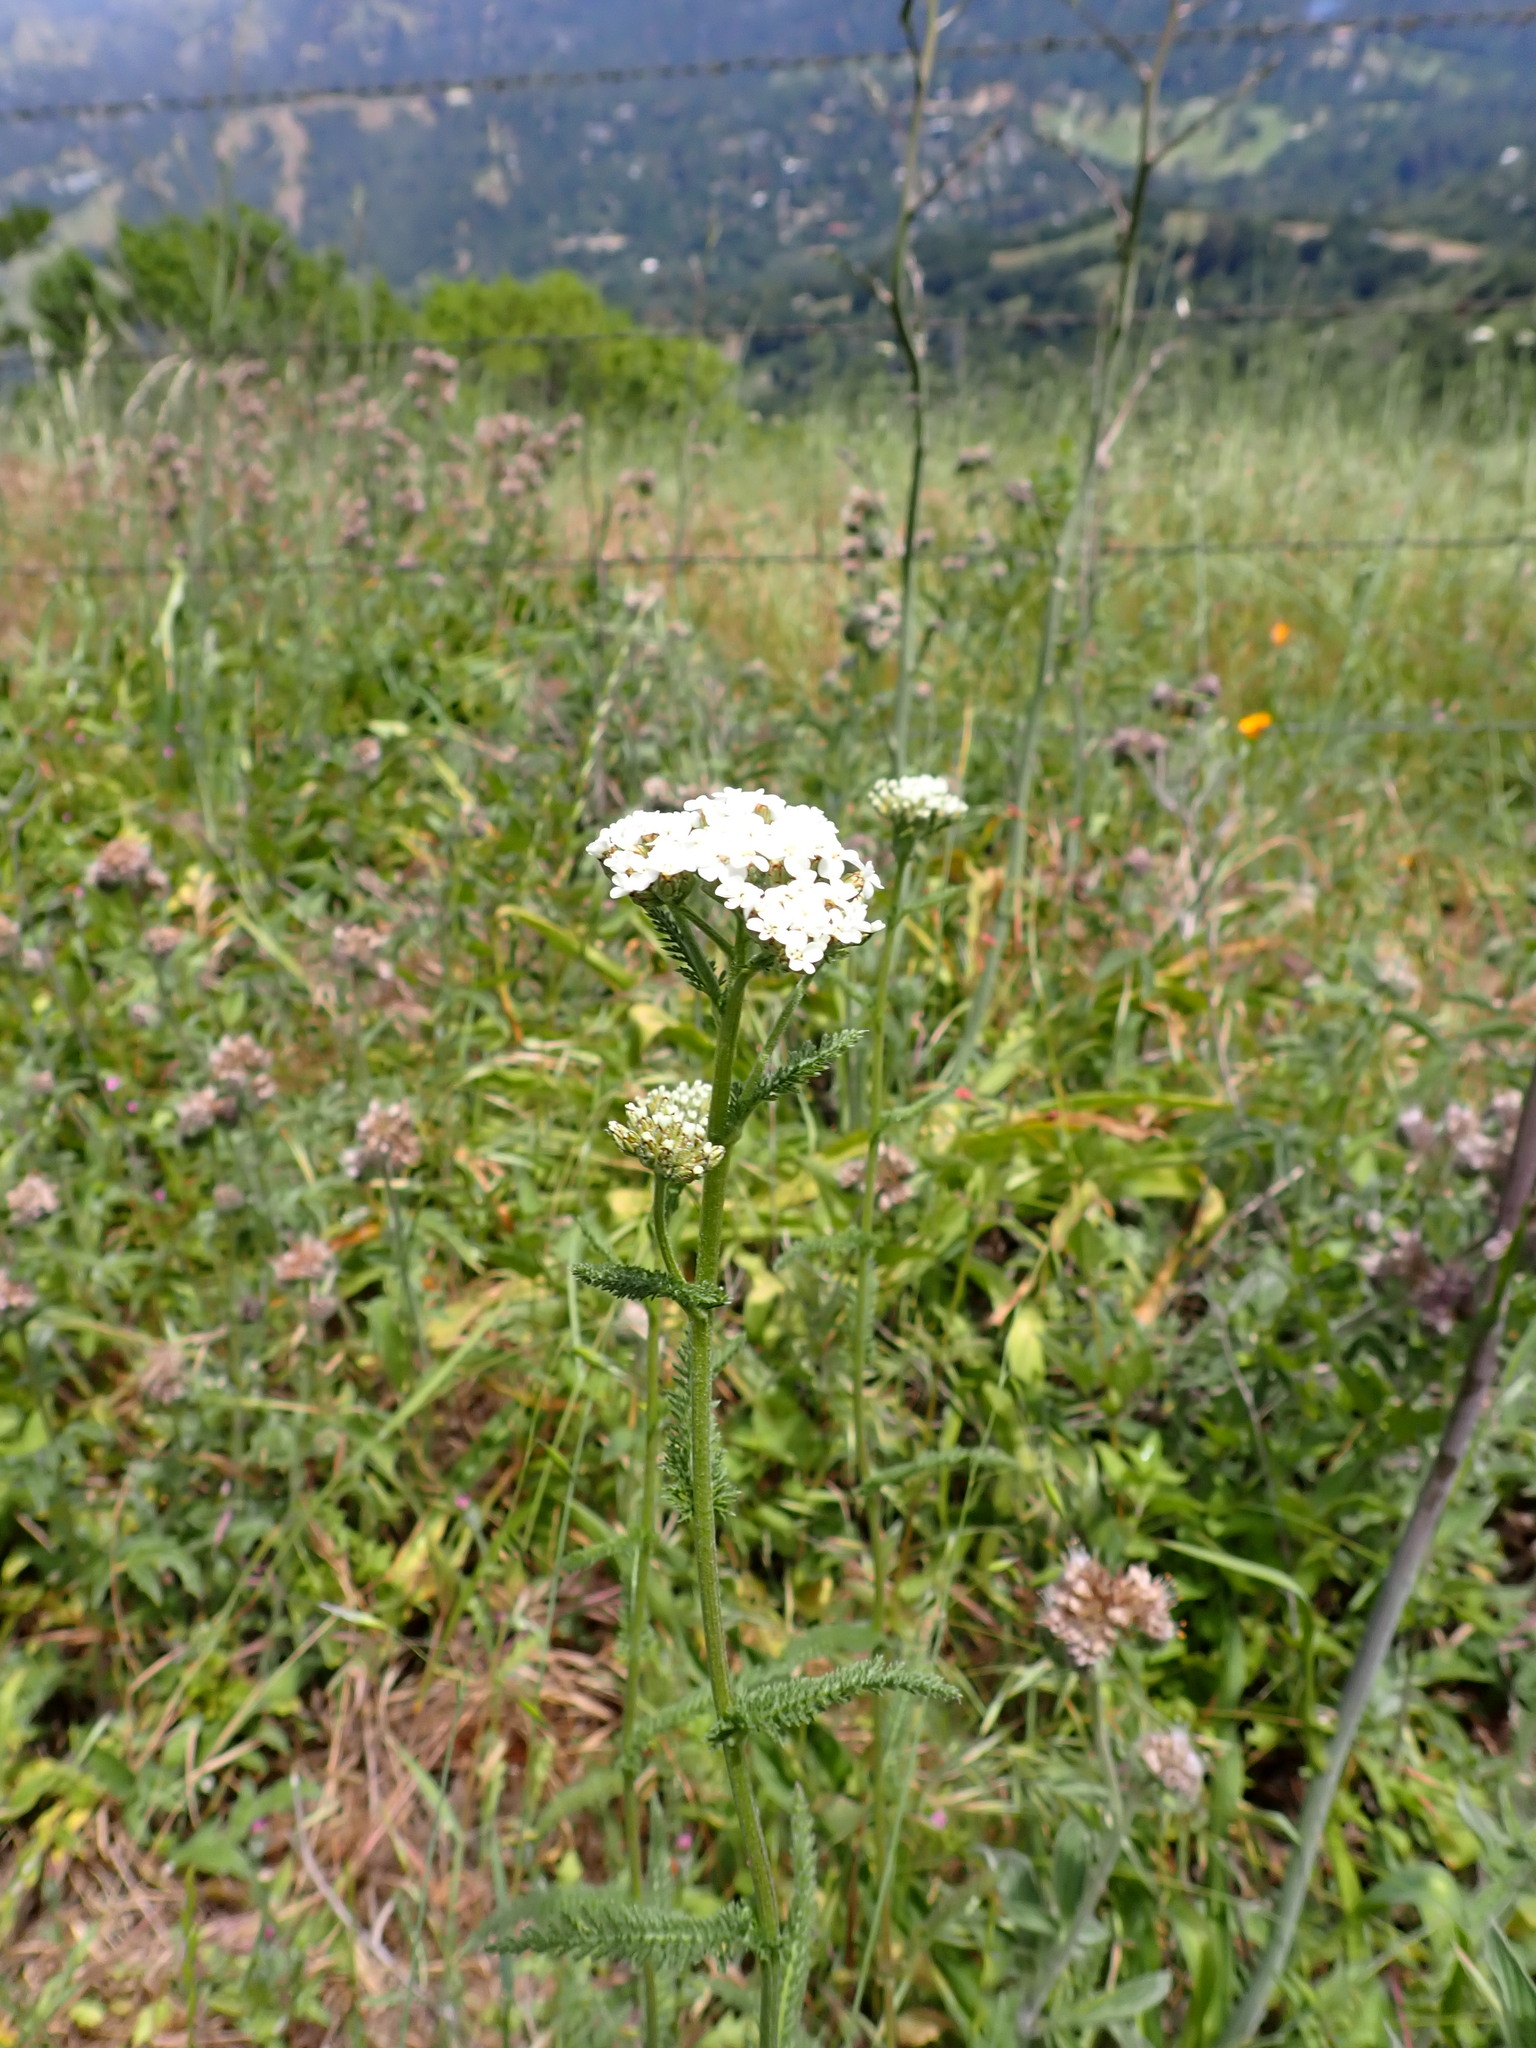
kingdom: Plantae
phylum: Tracheophyta
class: Magnoliopsida
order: Asterales
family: Asteraceae
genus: Achillea
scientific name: Achillea millefolium
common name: Yarrow
